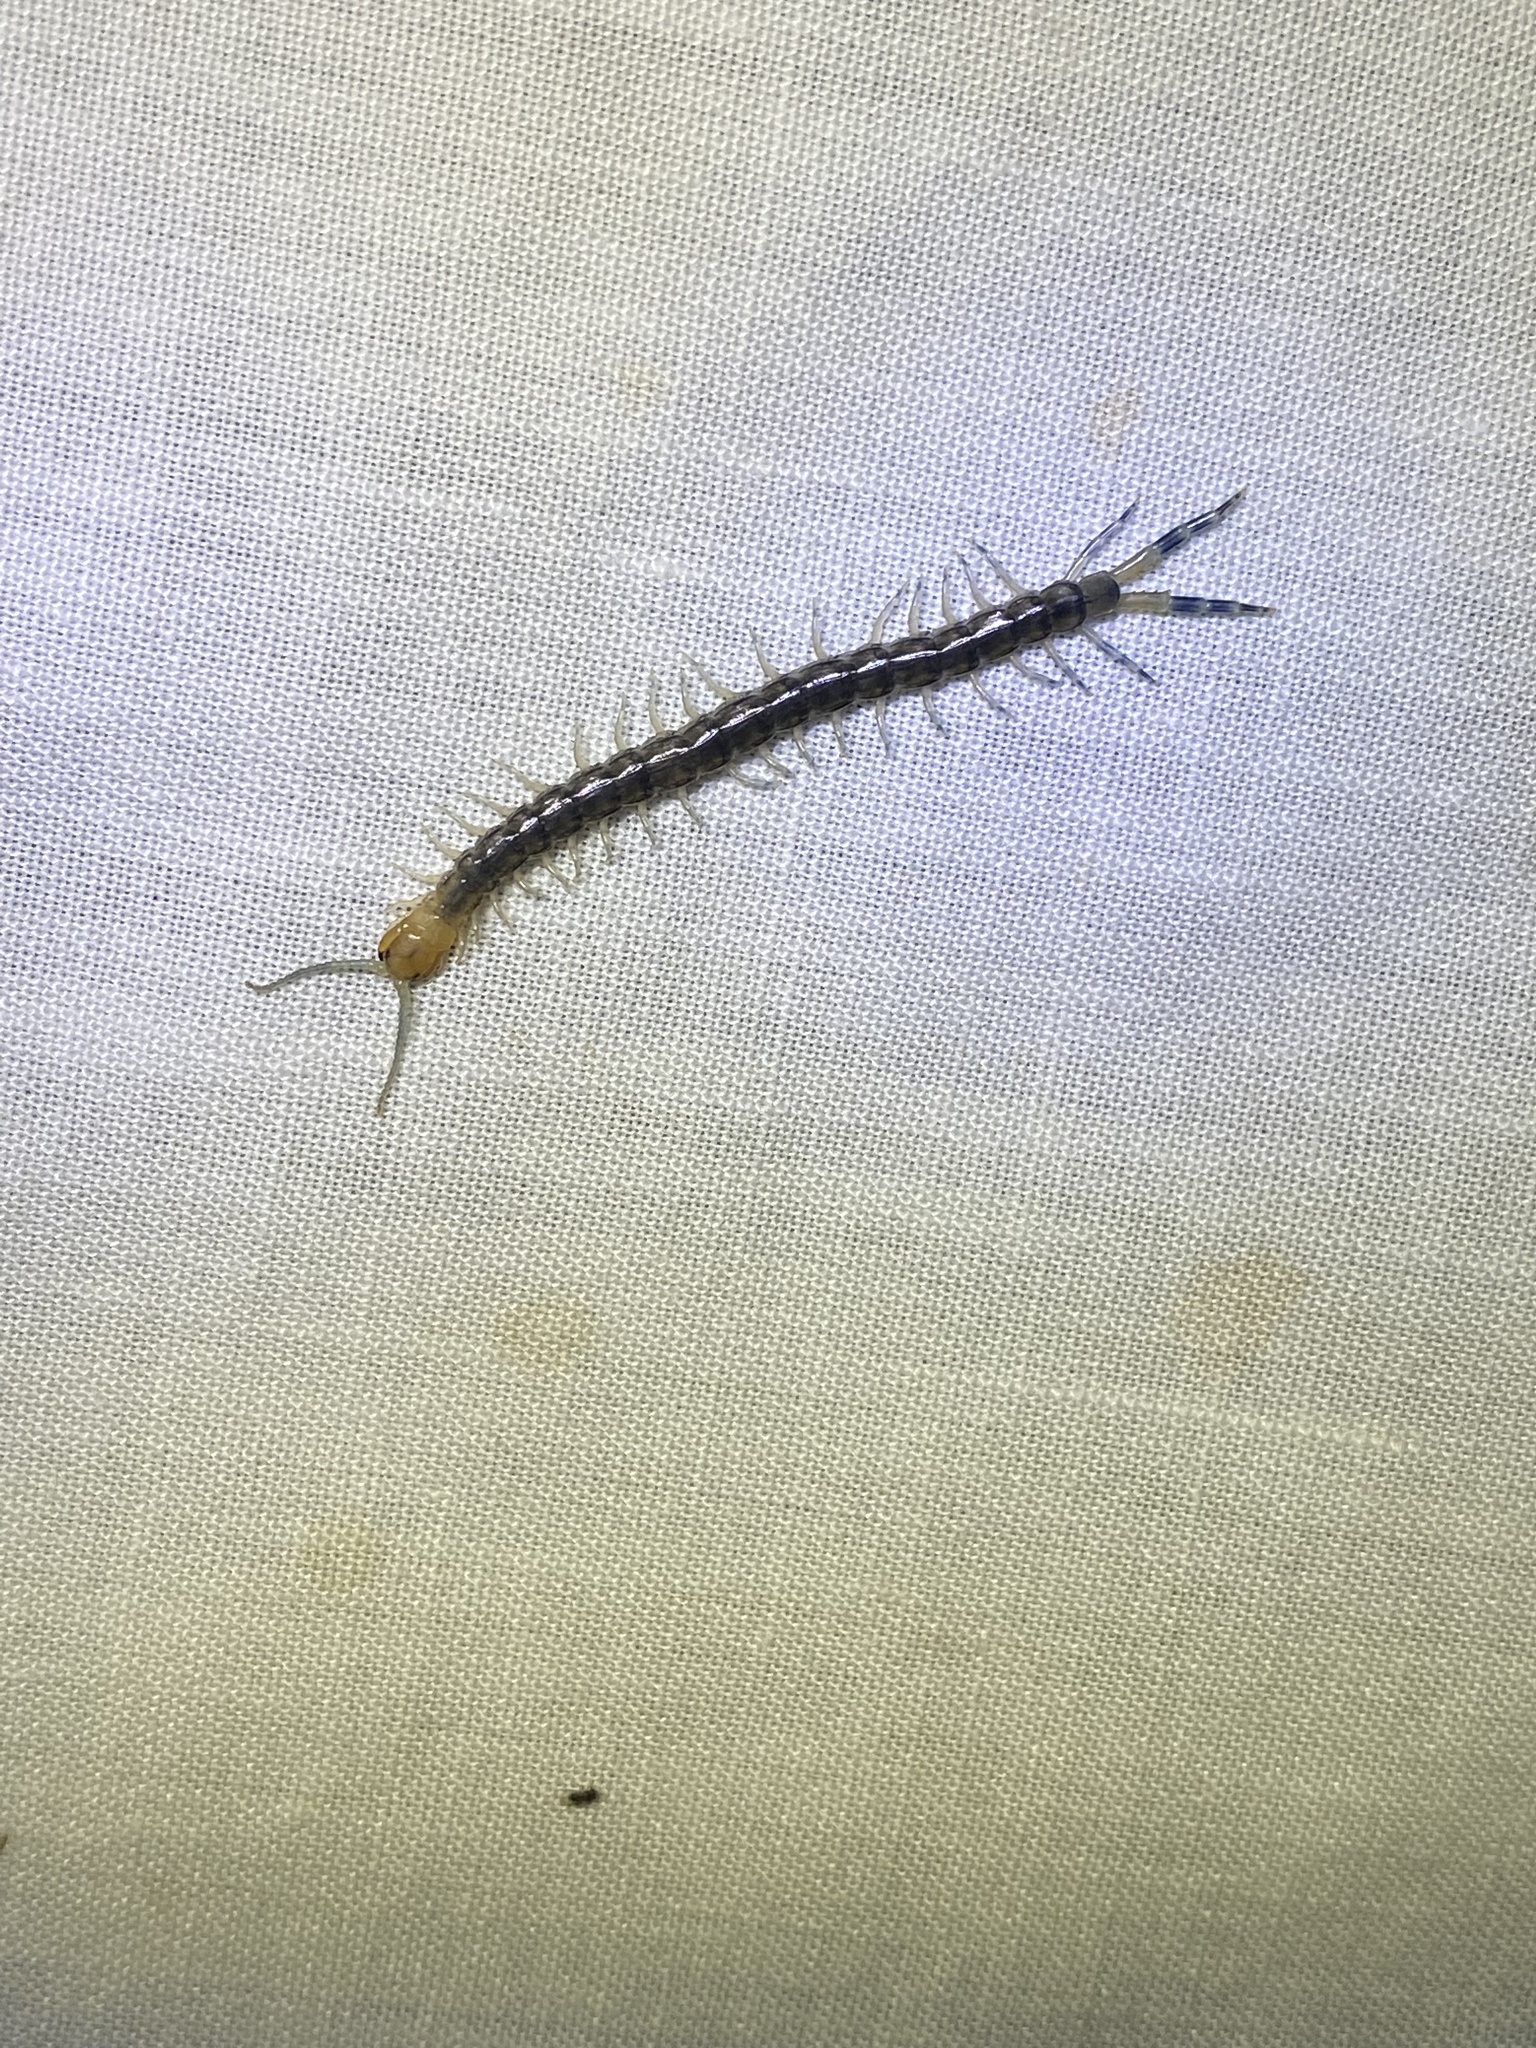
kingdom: Animalia
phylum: Arthropoda
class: Chilopoda
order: Scolopendromorpha
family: Scolopendridae
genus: Hemiscolopendra
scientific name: Hemiscolopendra marginata
